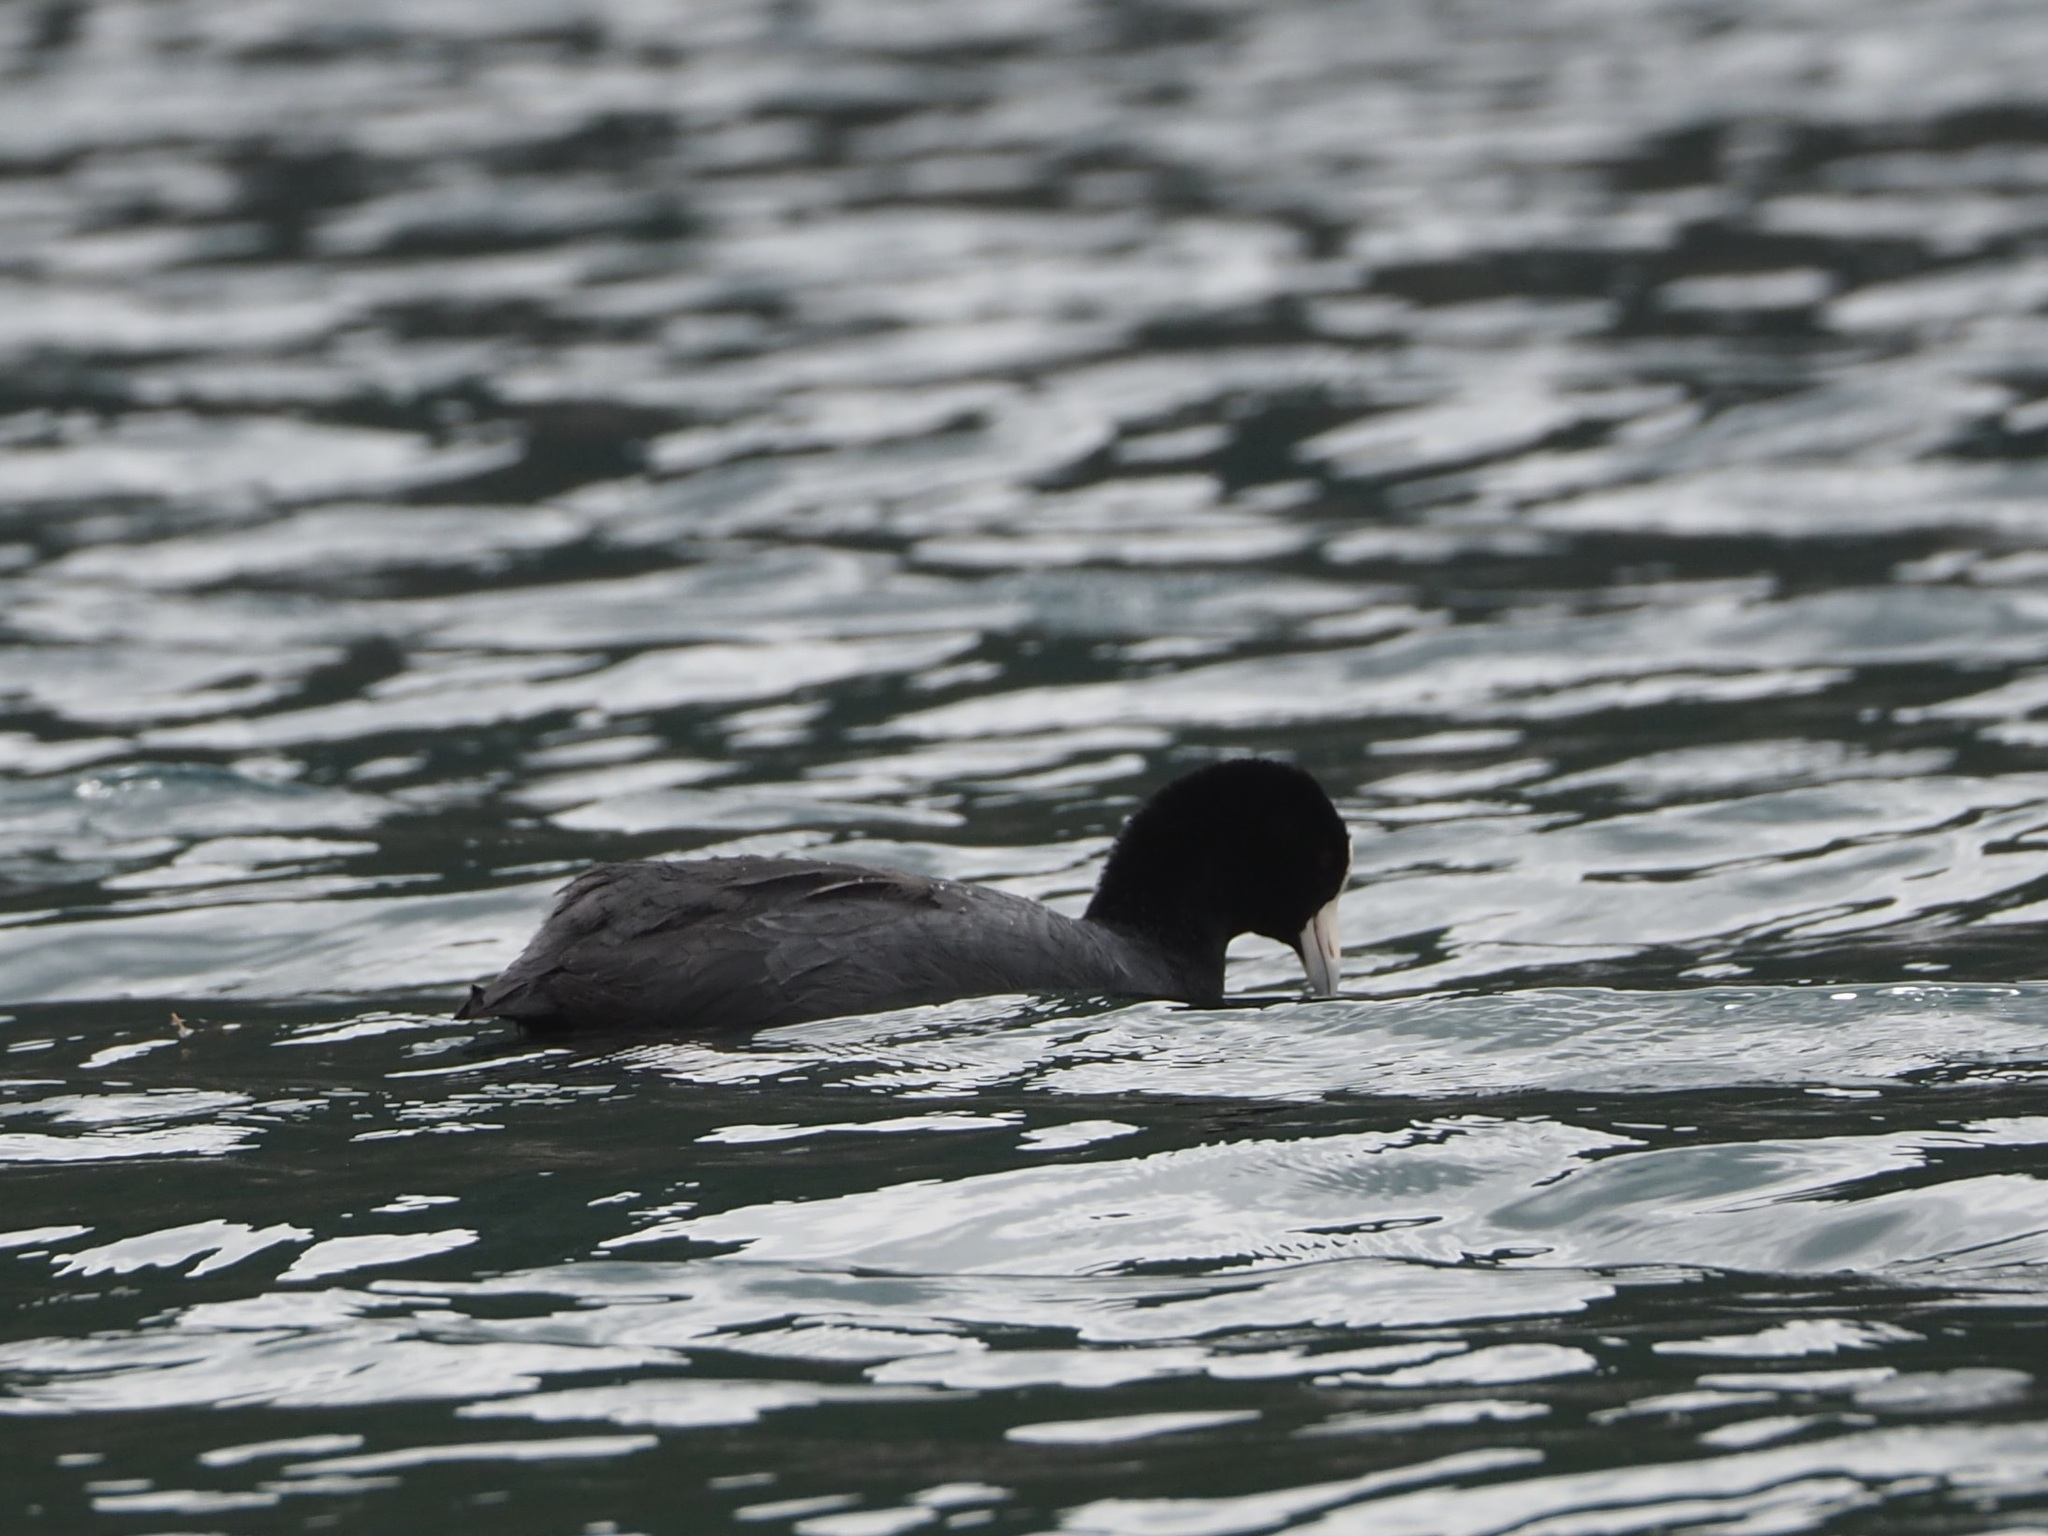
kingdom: Animalia
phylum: Chordata
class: Aves
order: Gruiformes
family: Rallidae
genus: Fulica
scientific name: Fulica ardesiaca
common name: Andean coot
